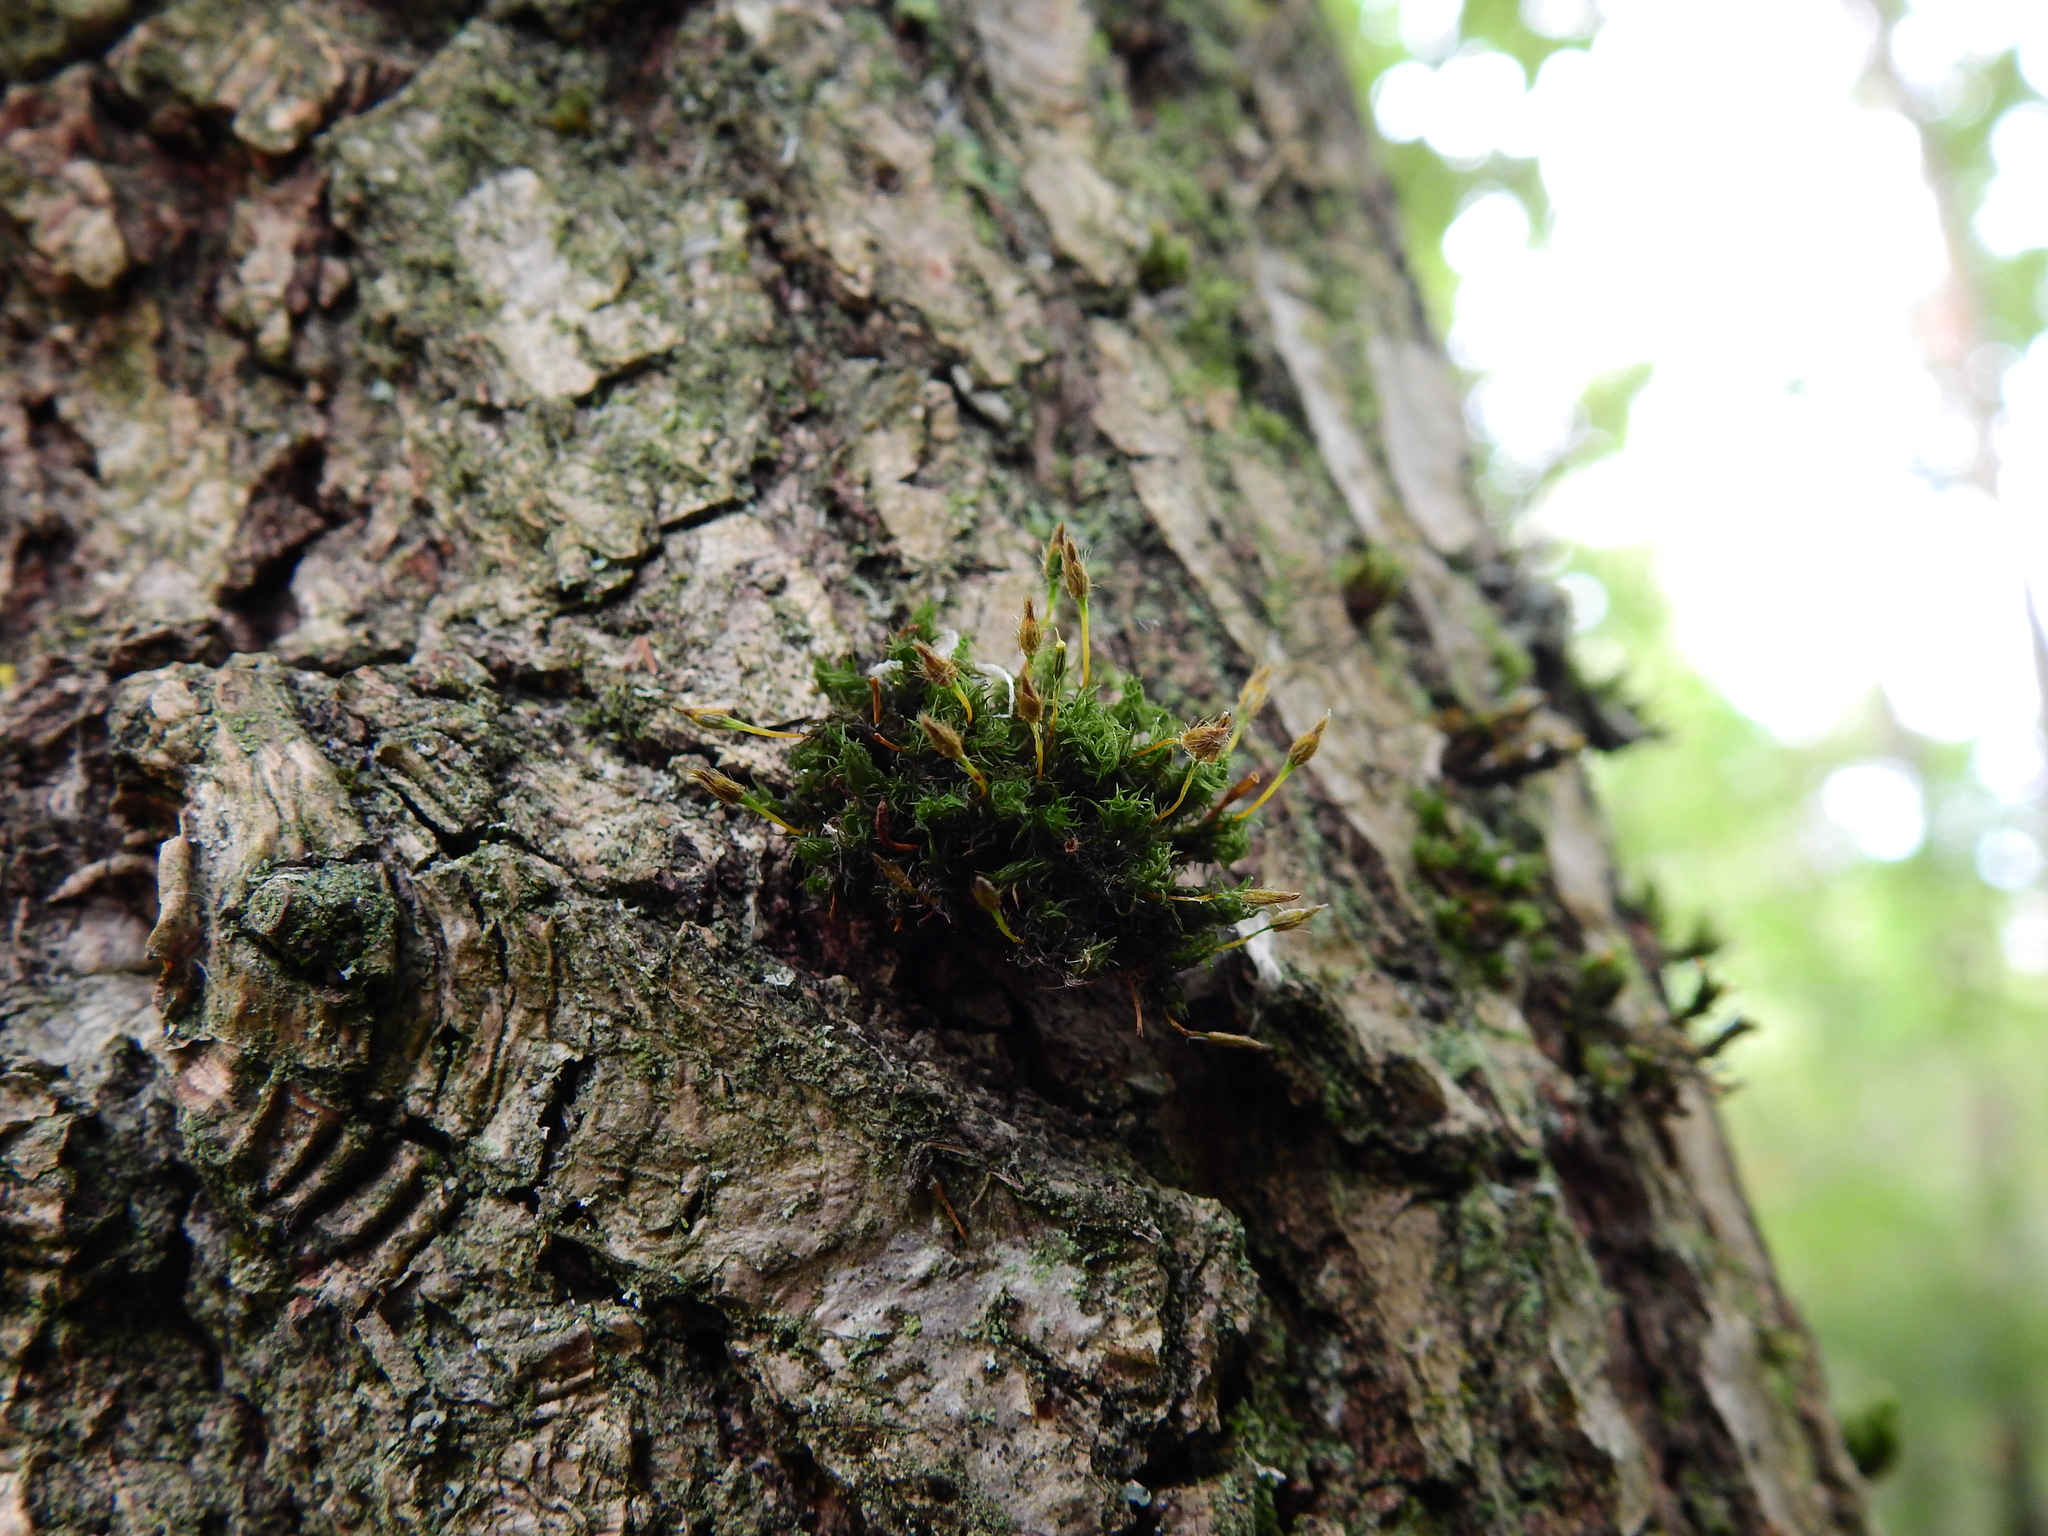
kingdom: Plantae
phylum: Bryophyta
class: Bryopsida
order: Orthotrichales
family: Orthotrichaceae
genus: Ulota
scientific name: Ulota bruchii
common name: Bruch's pincushion
